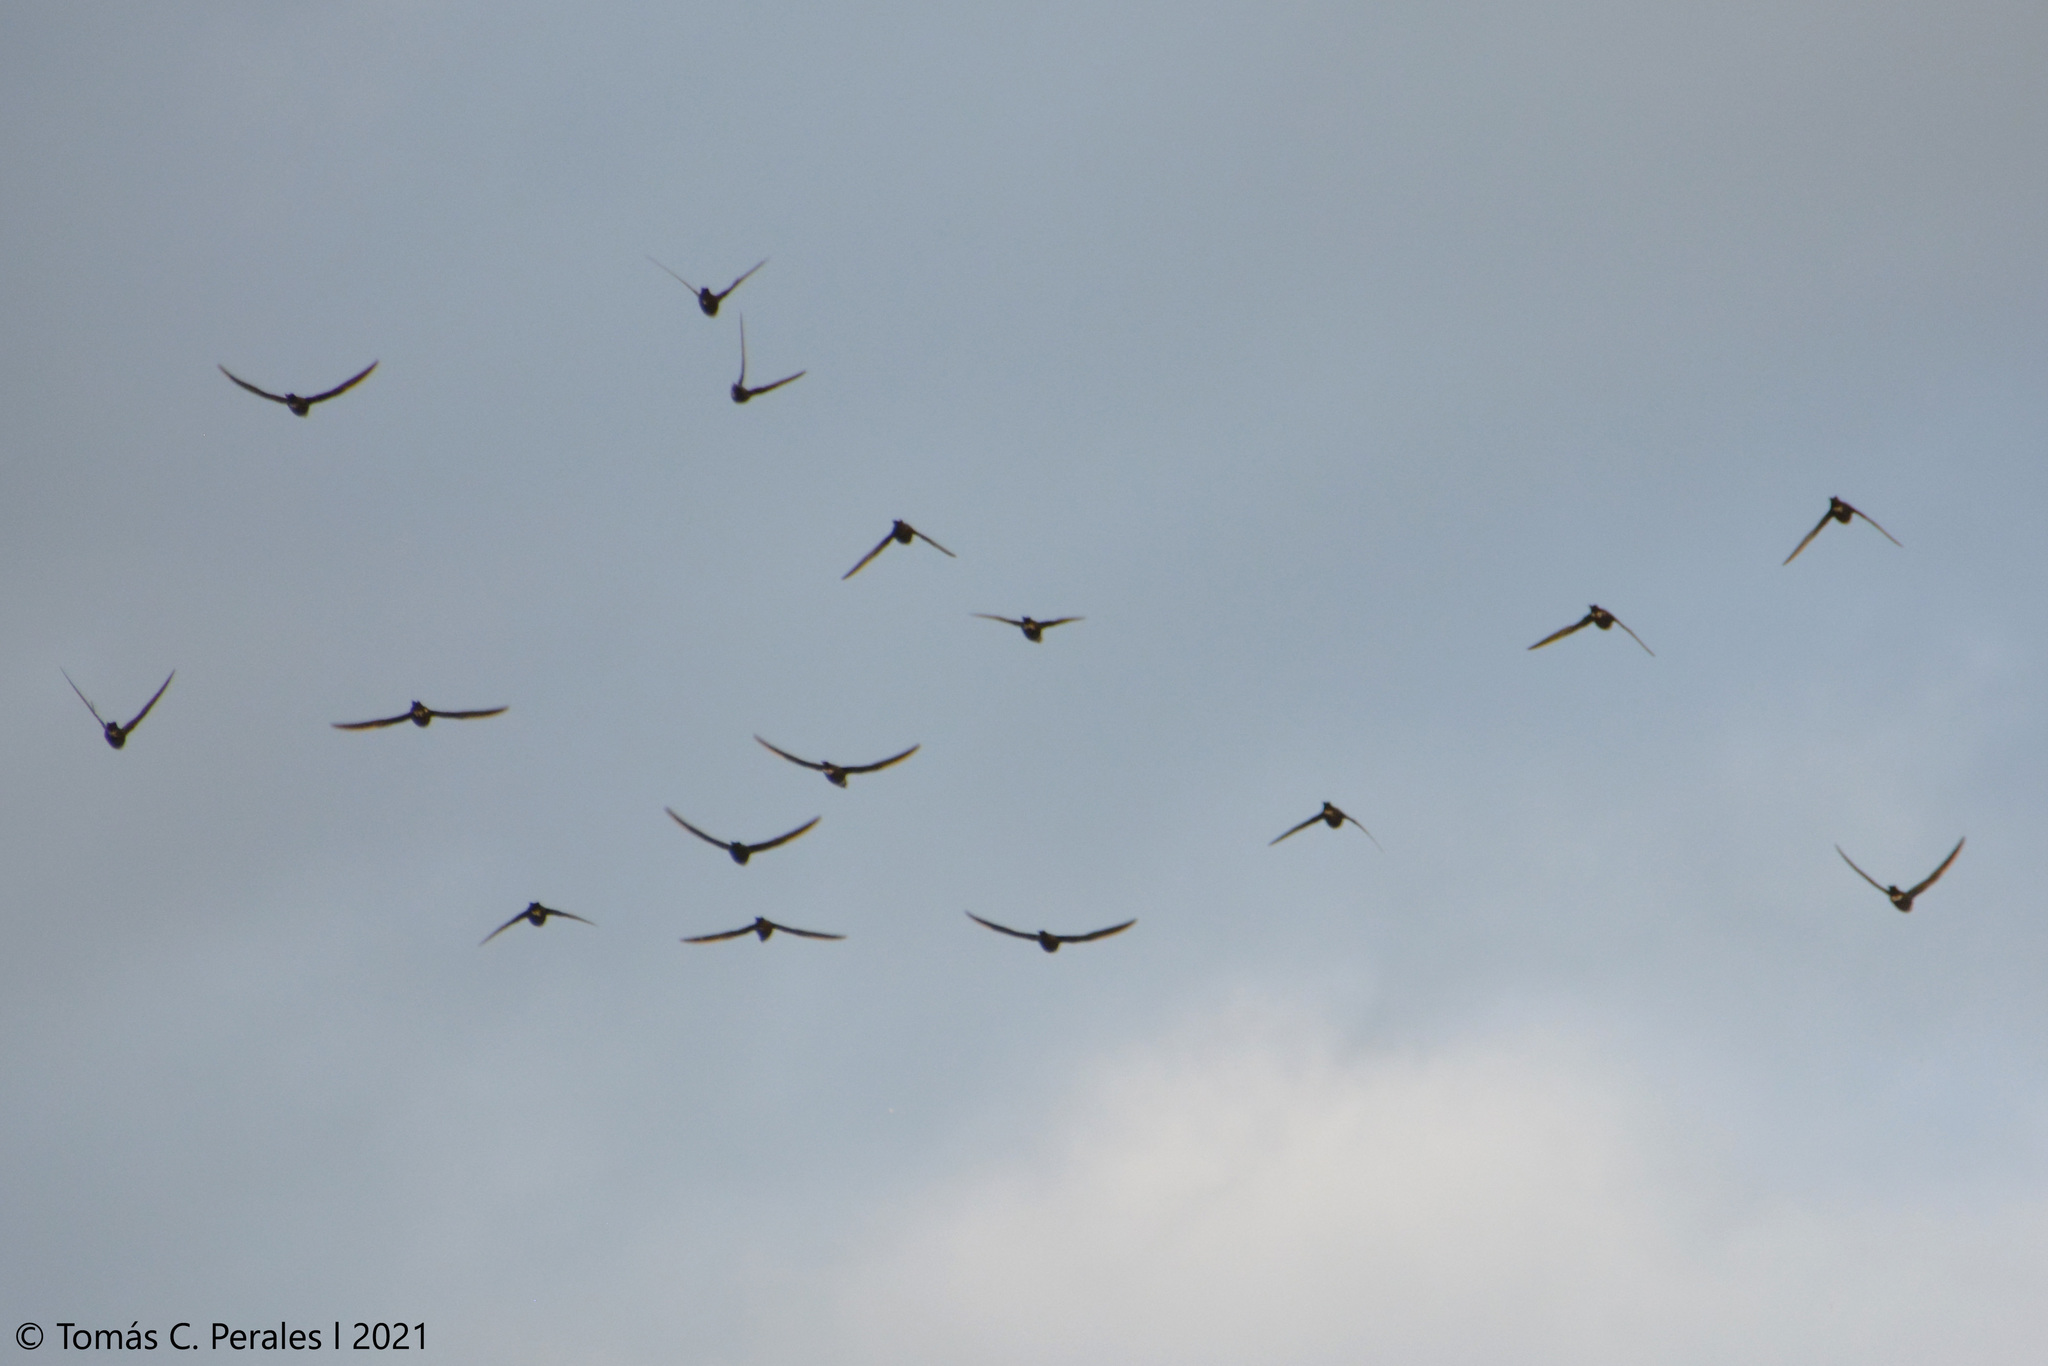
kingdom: Animalia
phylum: Chordata
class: Aves
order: Apodiformes
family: Apodidae
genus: Streptoprocne
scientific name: Streptoprocne zonaris
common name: White-collared swift
